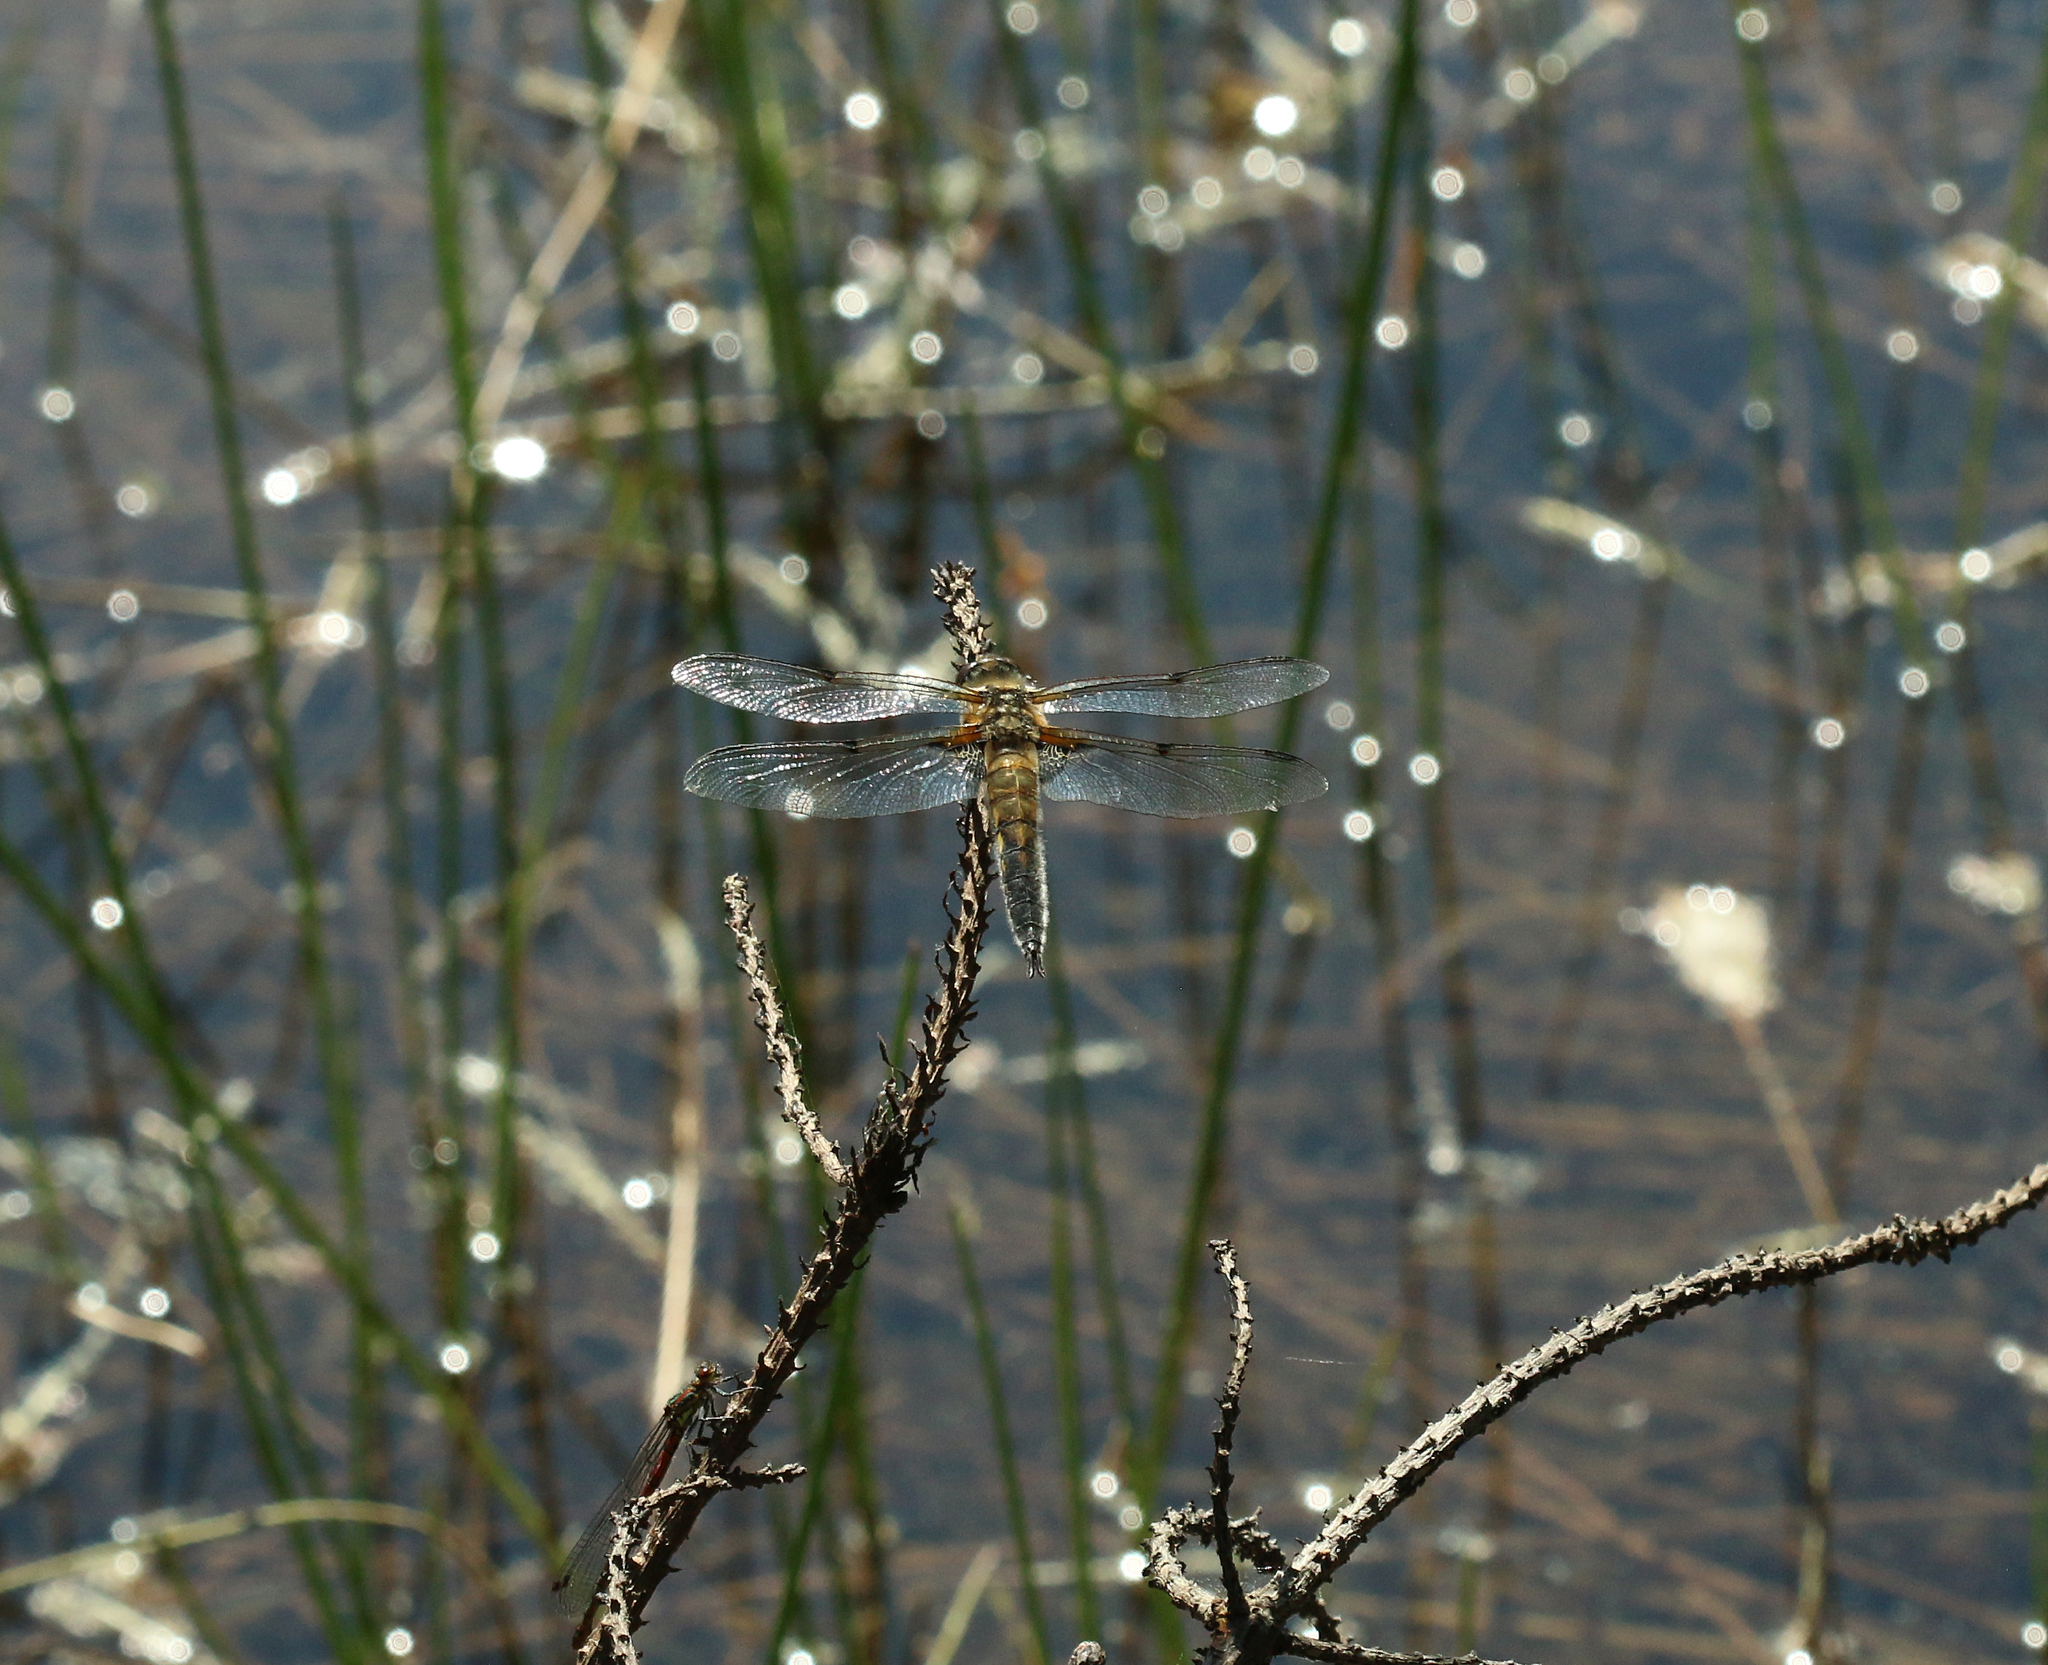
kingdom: Animalia
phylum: Arthropoda
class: Insecta
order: Odonata
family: Libellulidae
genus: Libellula
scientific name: Libellula quadrimaculata
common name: Four-spotted chaser
